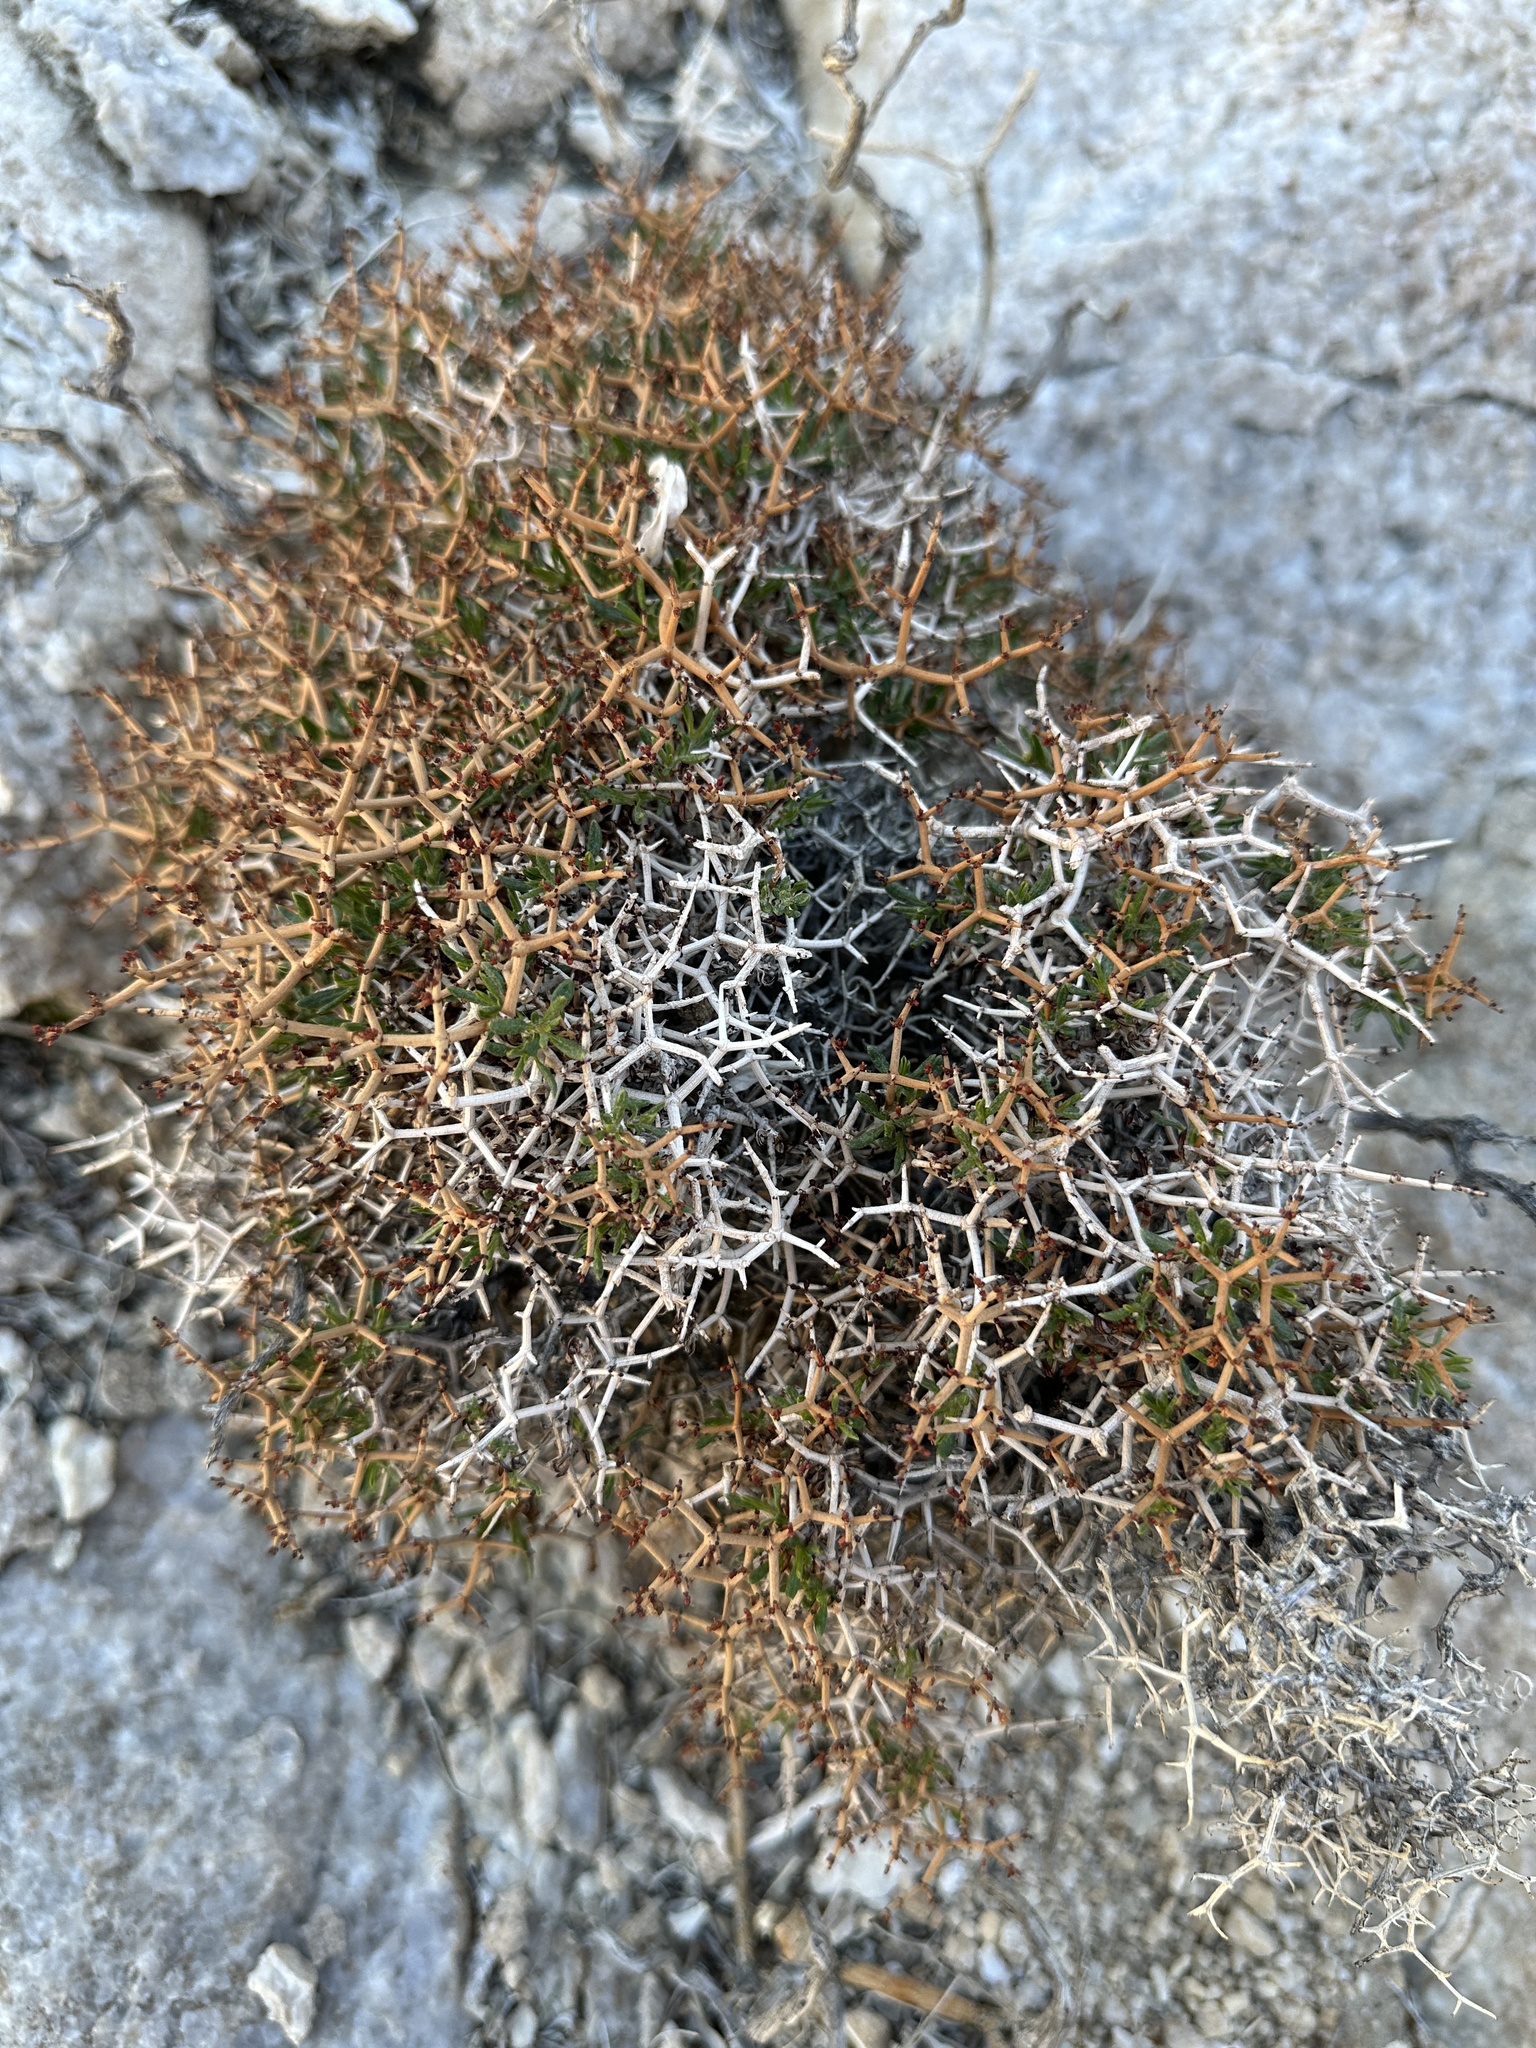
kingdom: Plantae
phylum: Tracheophyta
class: Magnoliopsida
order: Caryophyllales
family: Polygonaceae
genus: Eriogonum
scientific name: Eriogonum heermannii
